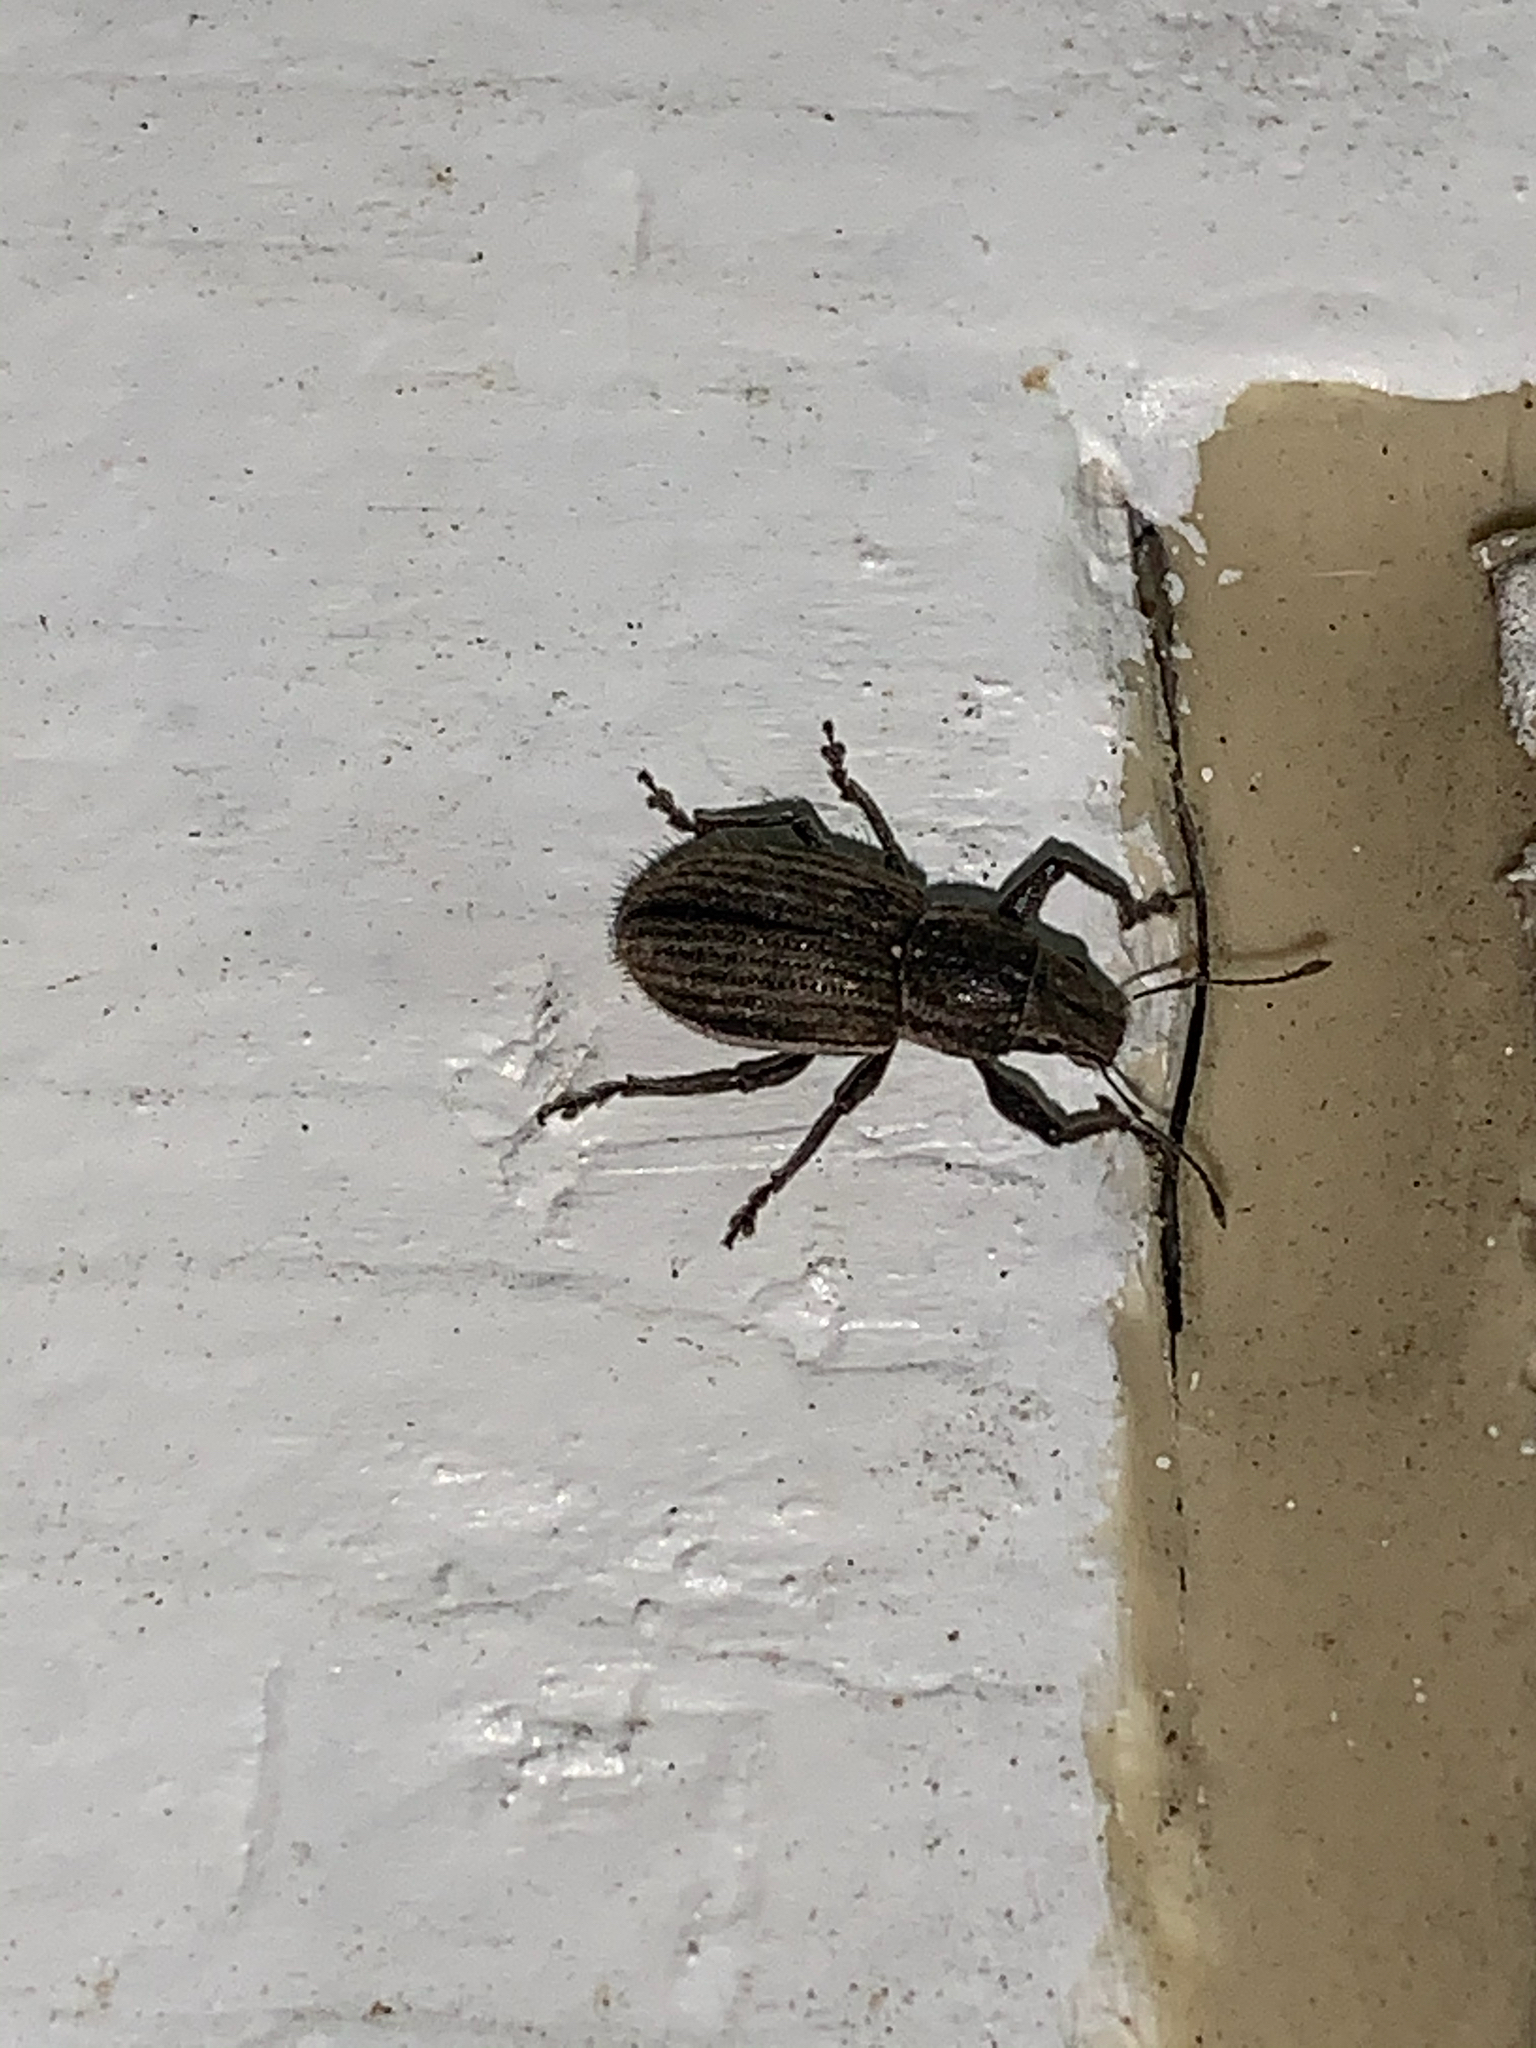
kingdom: Animalia
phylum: Arthropoda
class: Insecta
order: Coleoptera
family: Curculionidae
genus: Naupactus
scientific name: Naupactus leucoloma
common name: Whitefringed beetle
